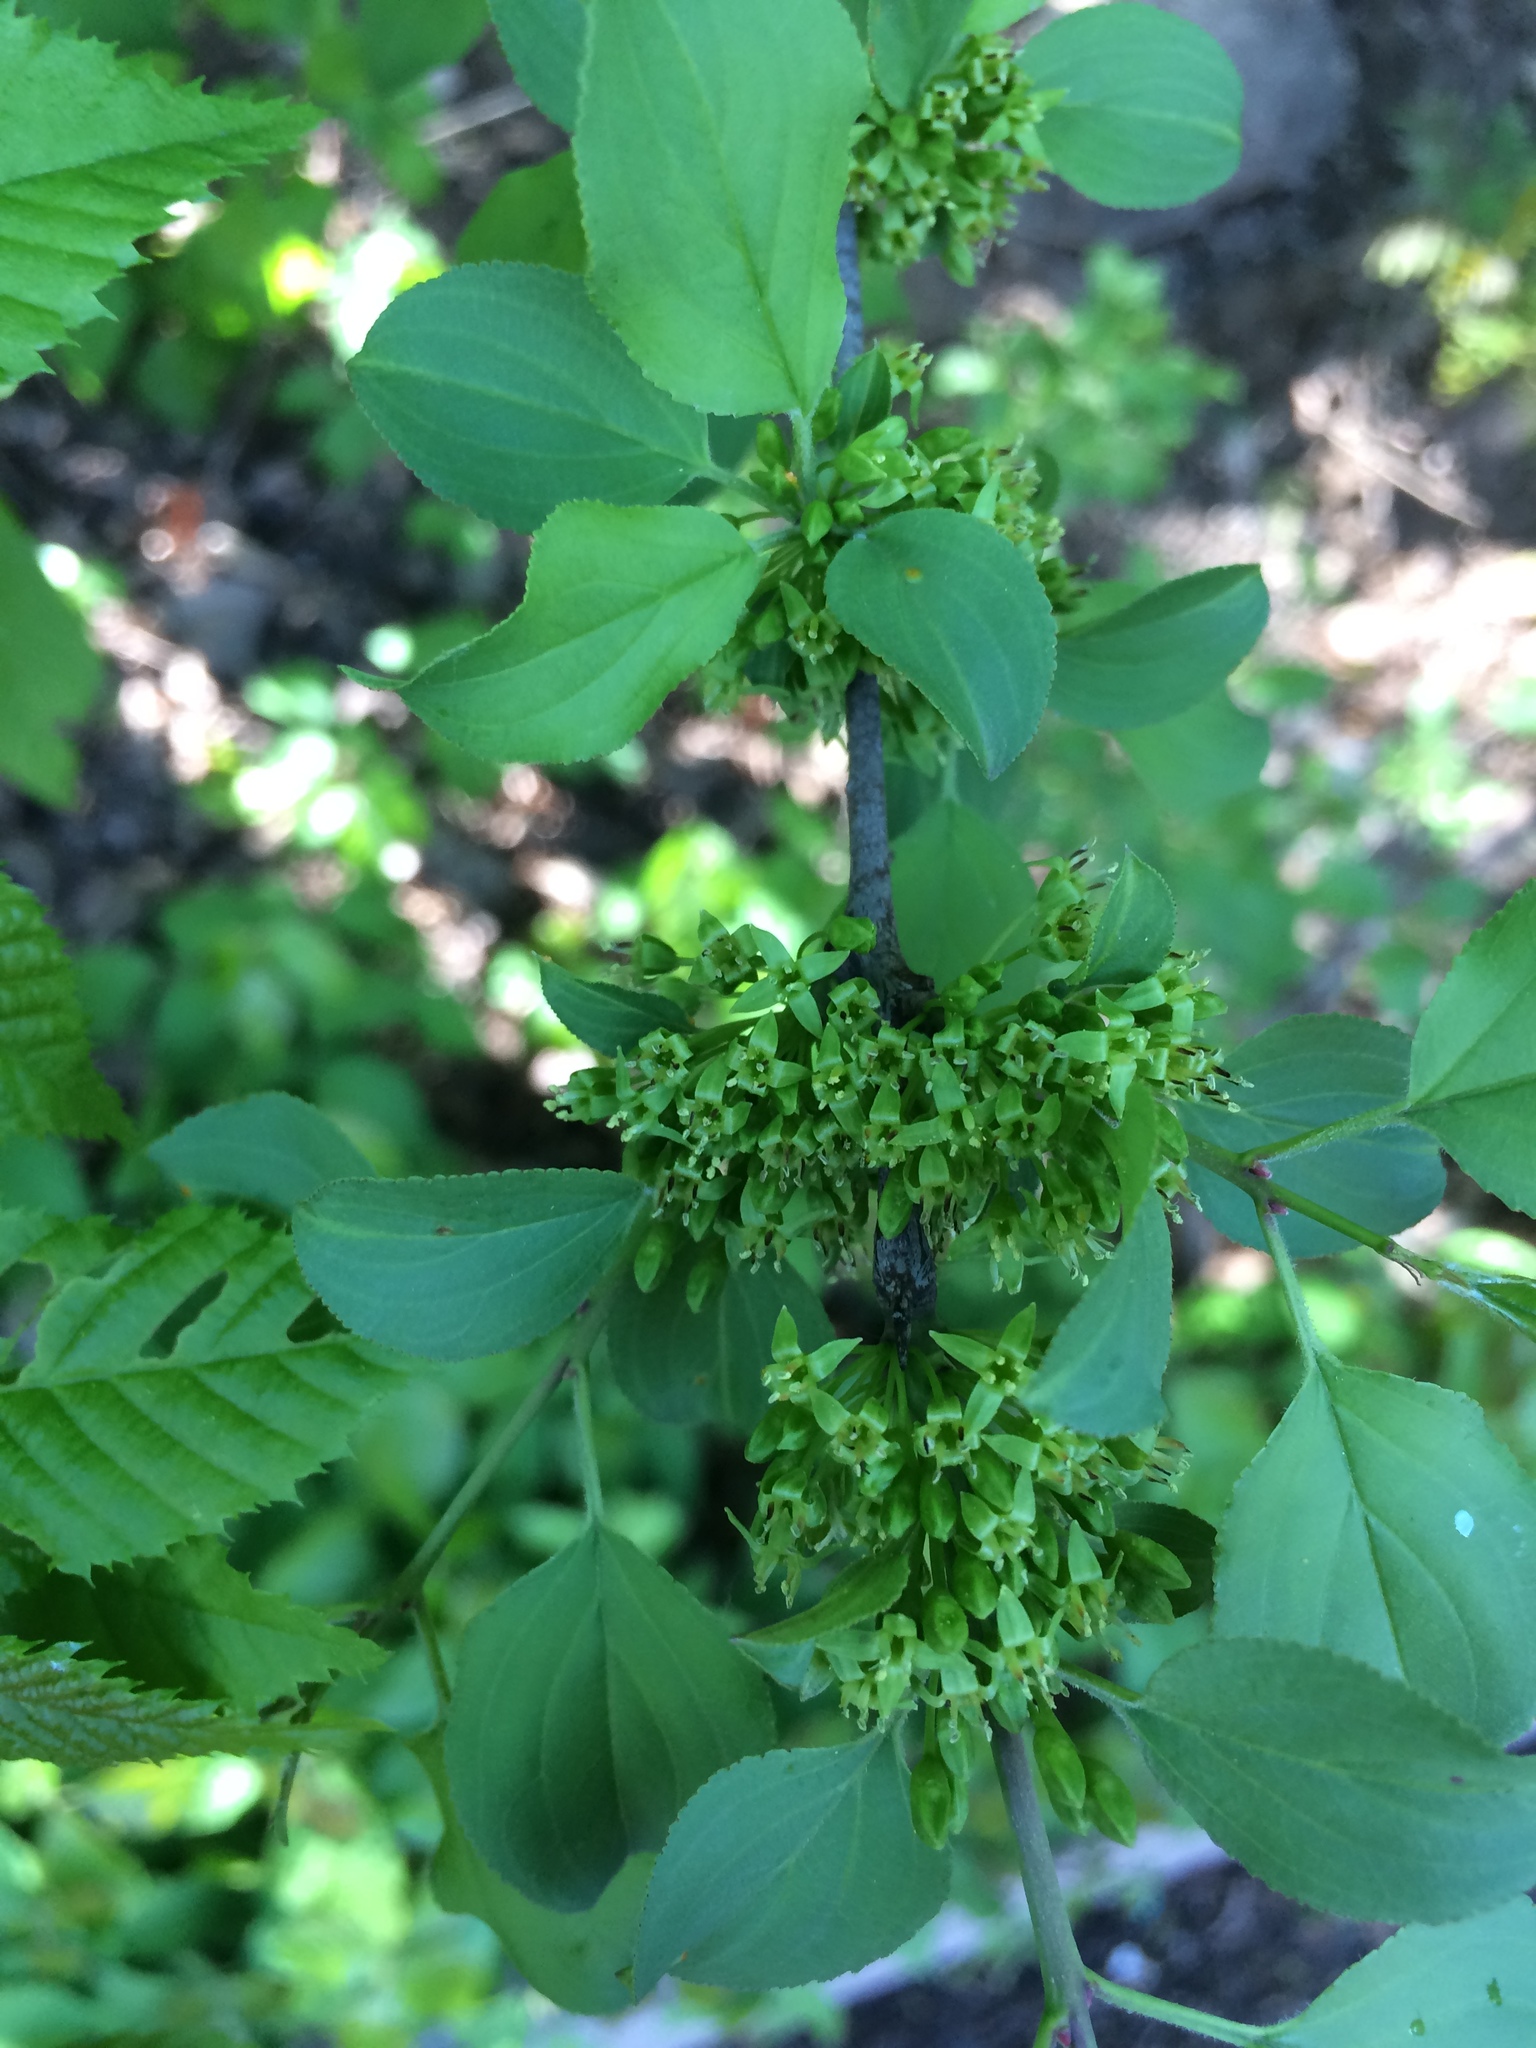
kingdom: Plantae
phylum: Tracheophyta
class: Magnoliopsida
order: Rosales
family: Rhamnaceae
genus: Rhamnus
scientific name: Rhamnus cathartica
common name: Common buckthorn
